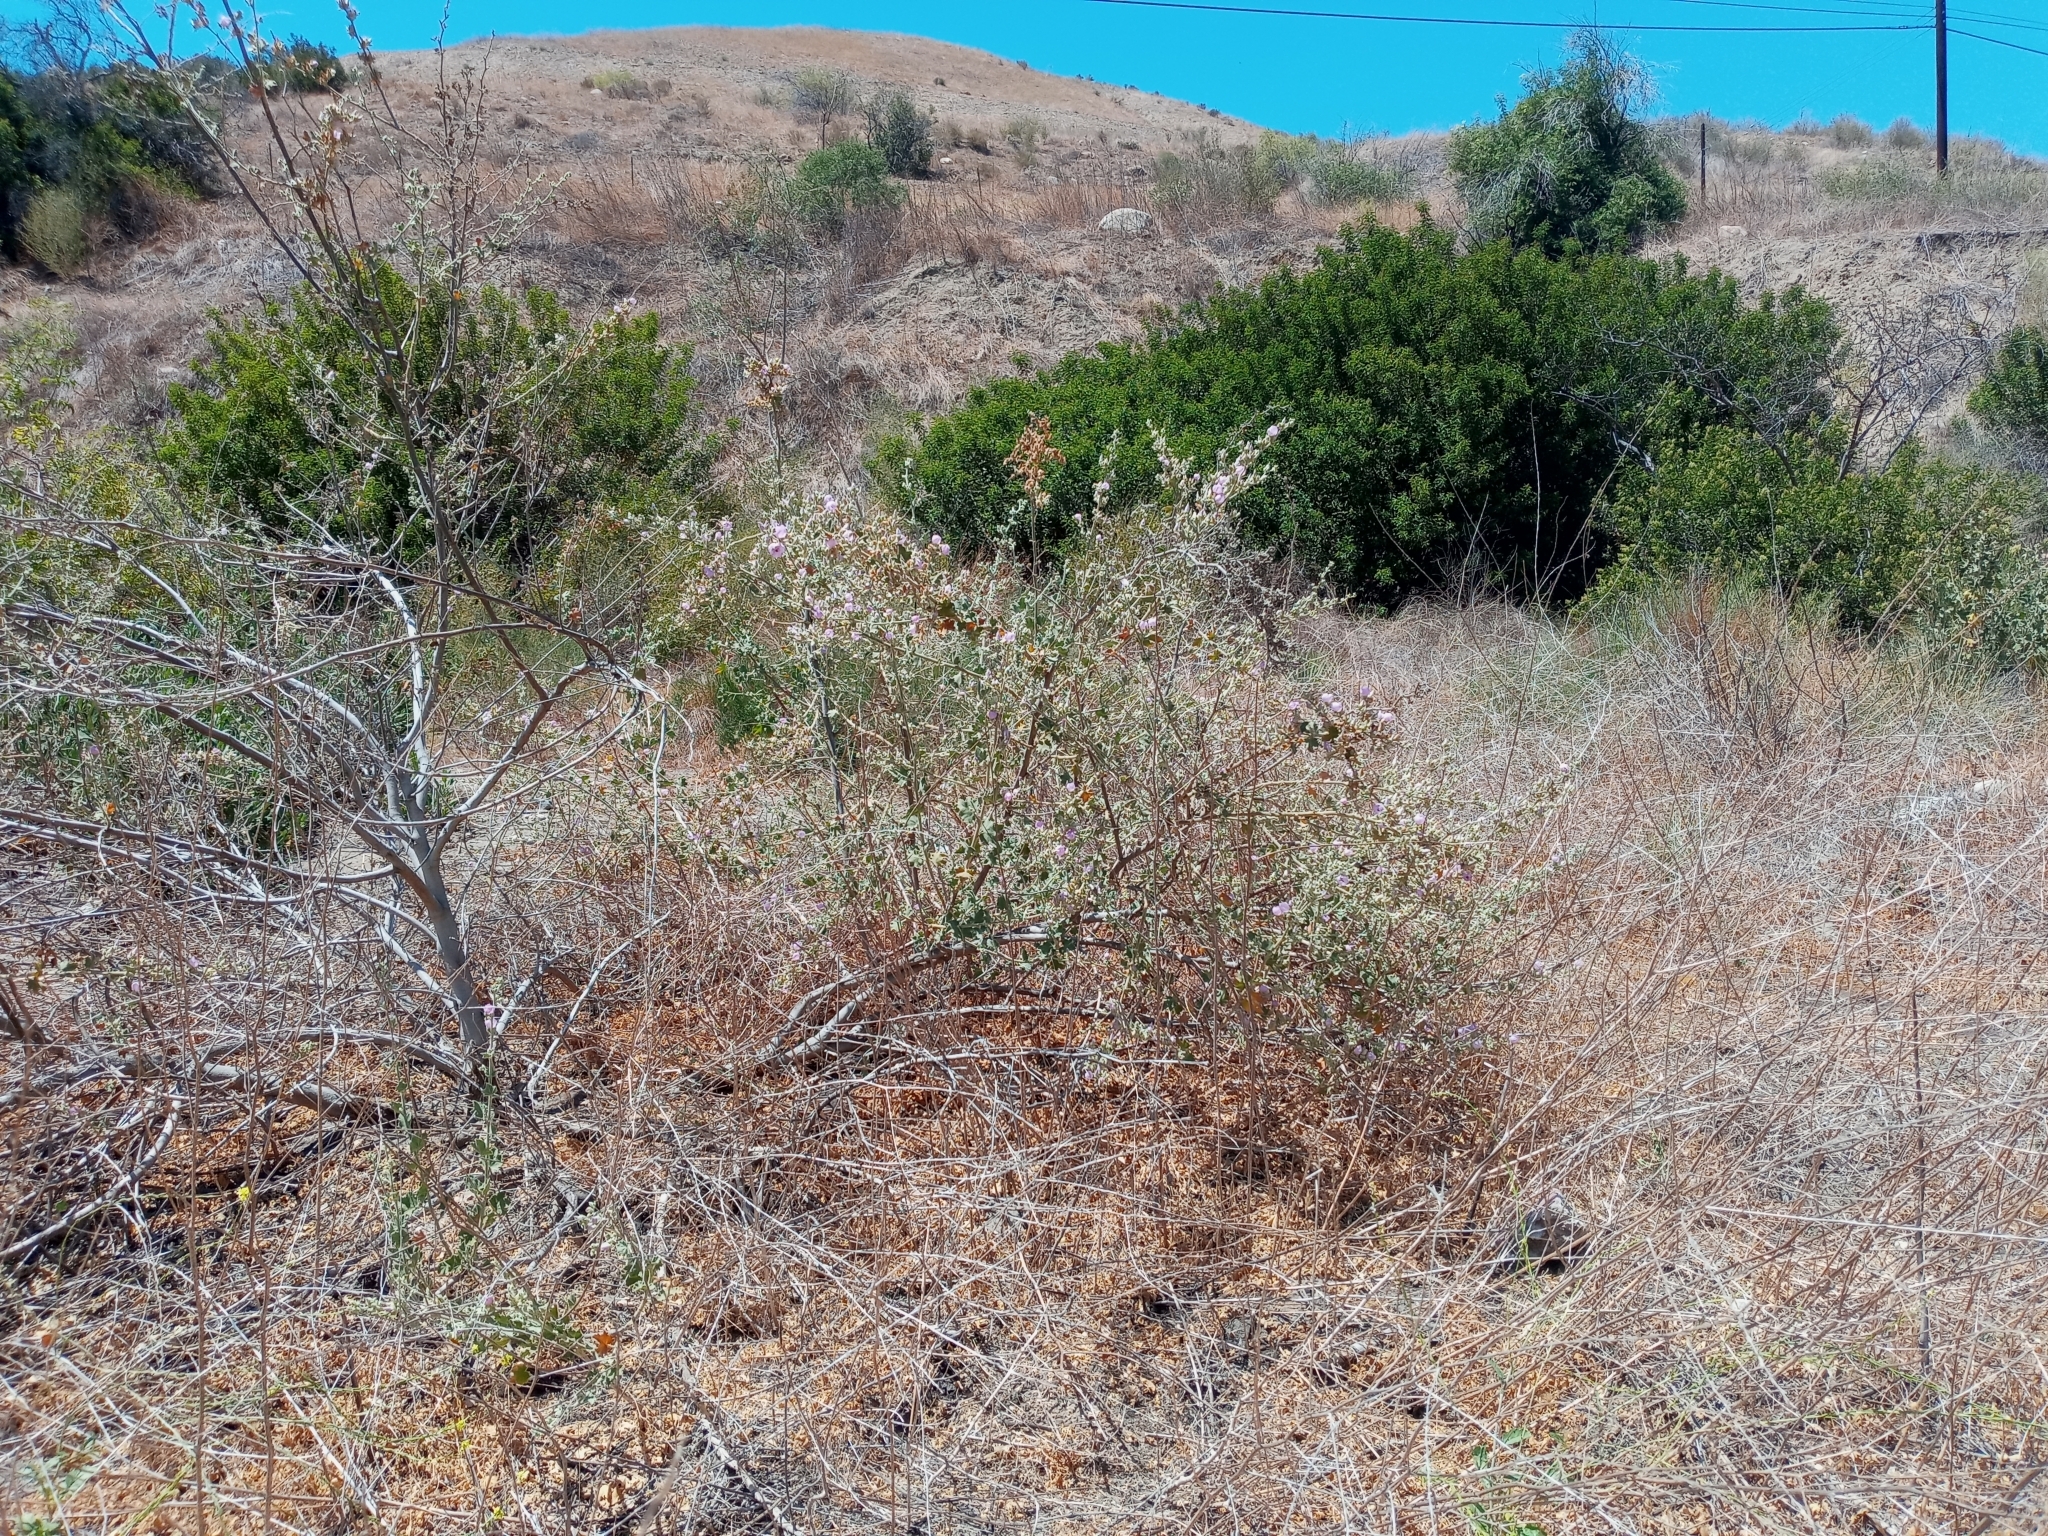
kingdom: Plantae
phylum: Tracheophyta
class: Magnoliopsida
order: Malvales
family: Malvaceae
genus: Malacothamnus
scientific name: Malacothamnus davidsonii
